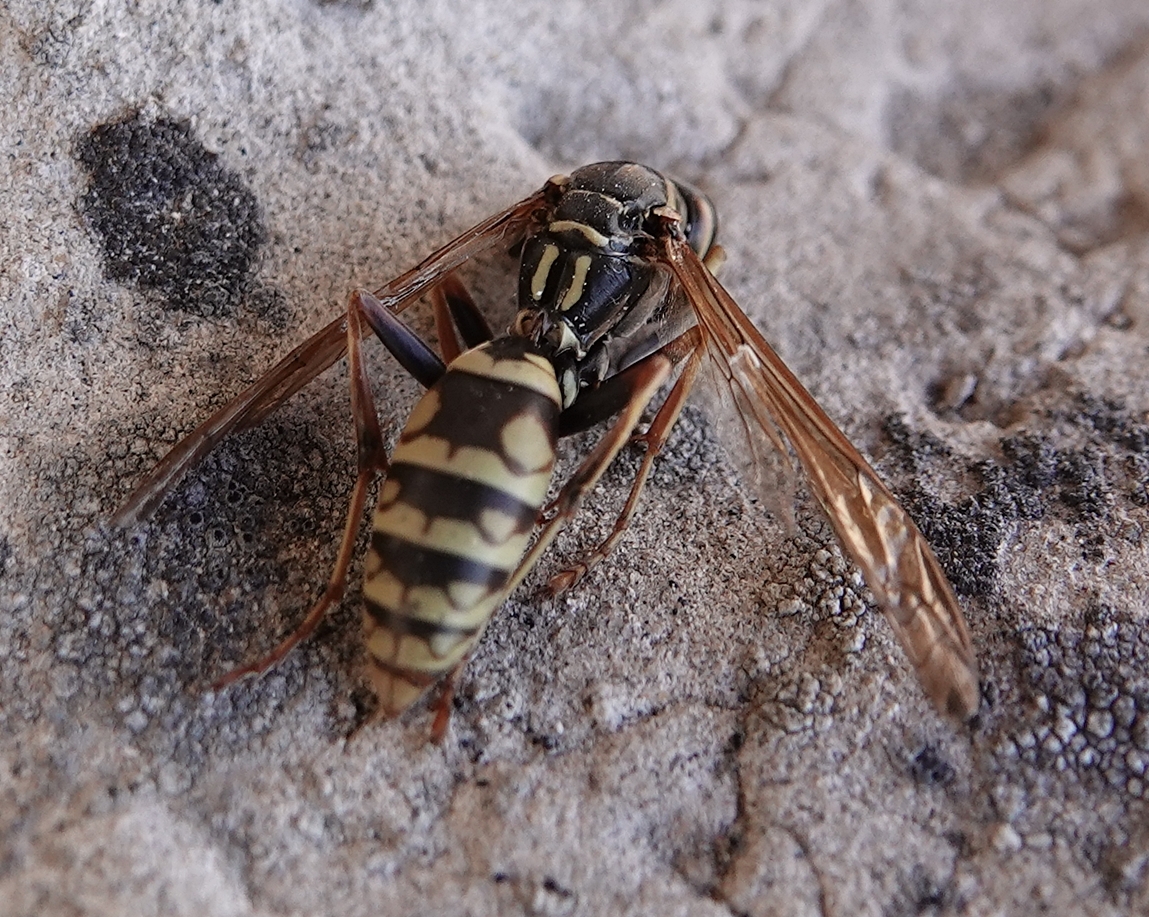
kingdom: Animalia
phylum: Arthropoda
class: Insecta
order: Hymenoptera
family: Eumenidae
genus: Polistes
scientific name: Polistes aurifer
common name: Paper wasp
